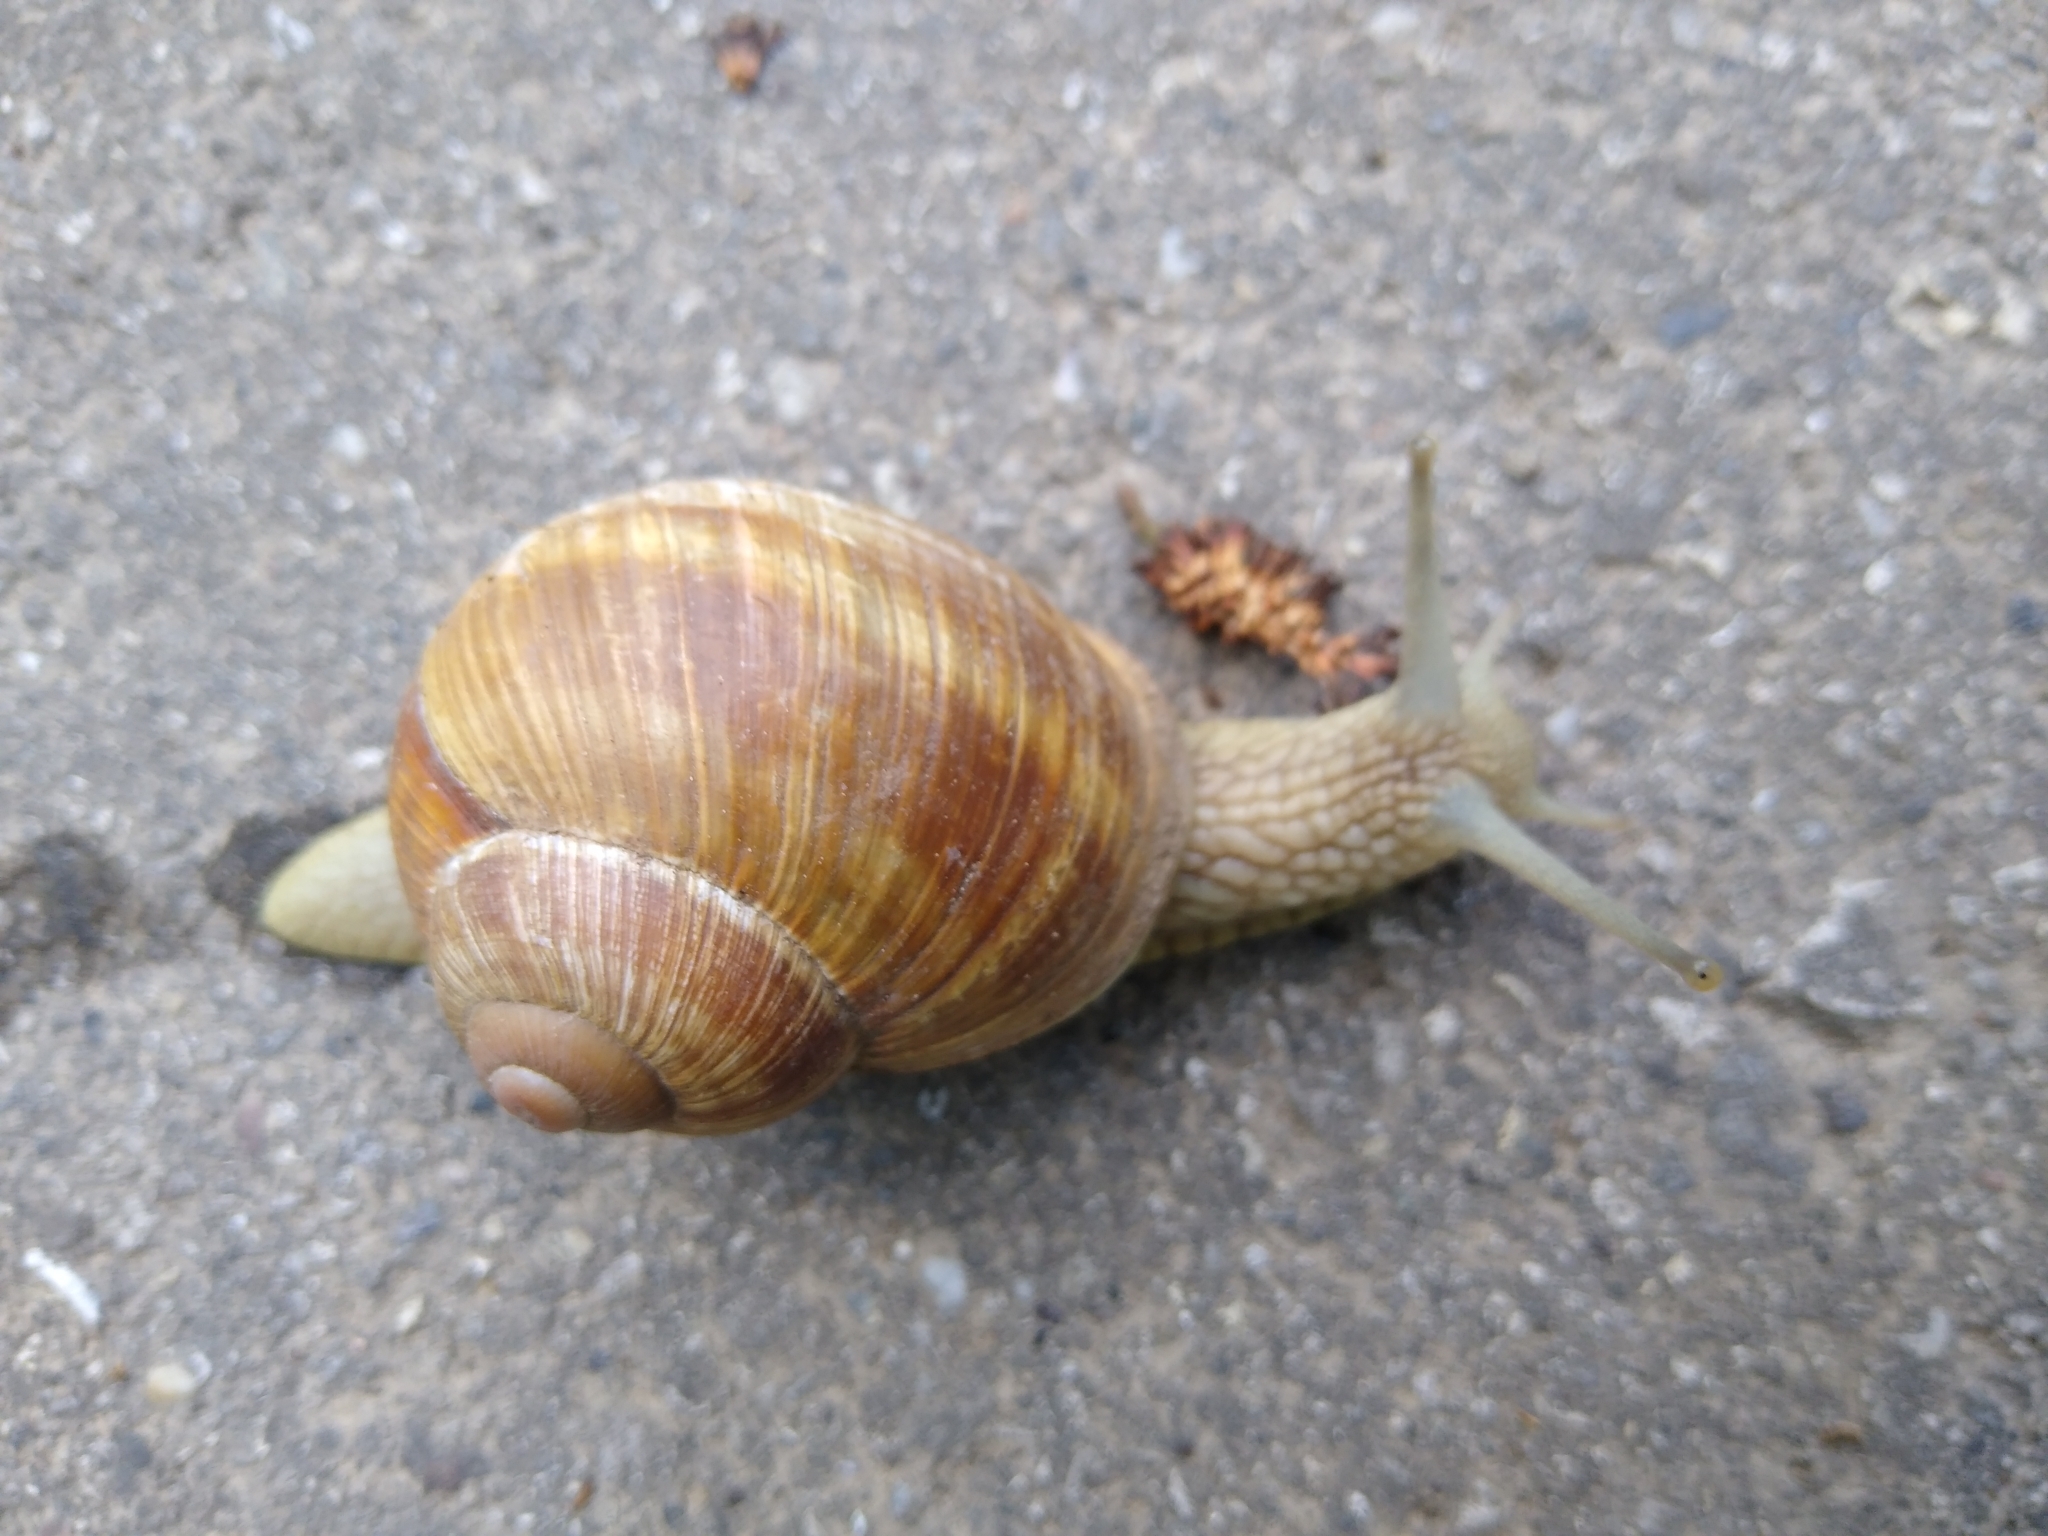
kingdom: Animalia
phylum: Mollusca
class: Gastropoda
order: Stylommatophora
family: Helicidae
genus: Helix
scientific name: Helix pomatia
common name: Roman snail
